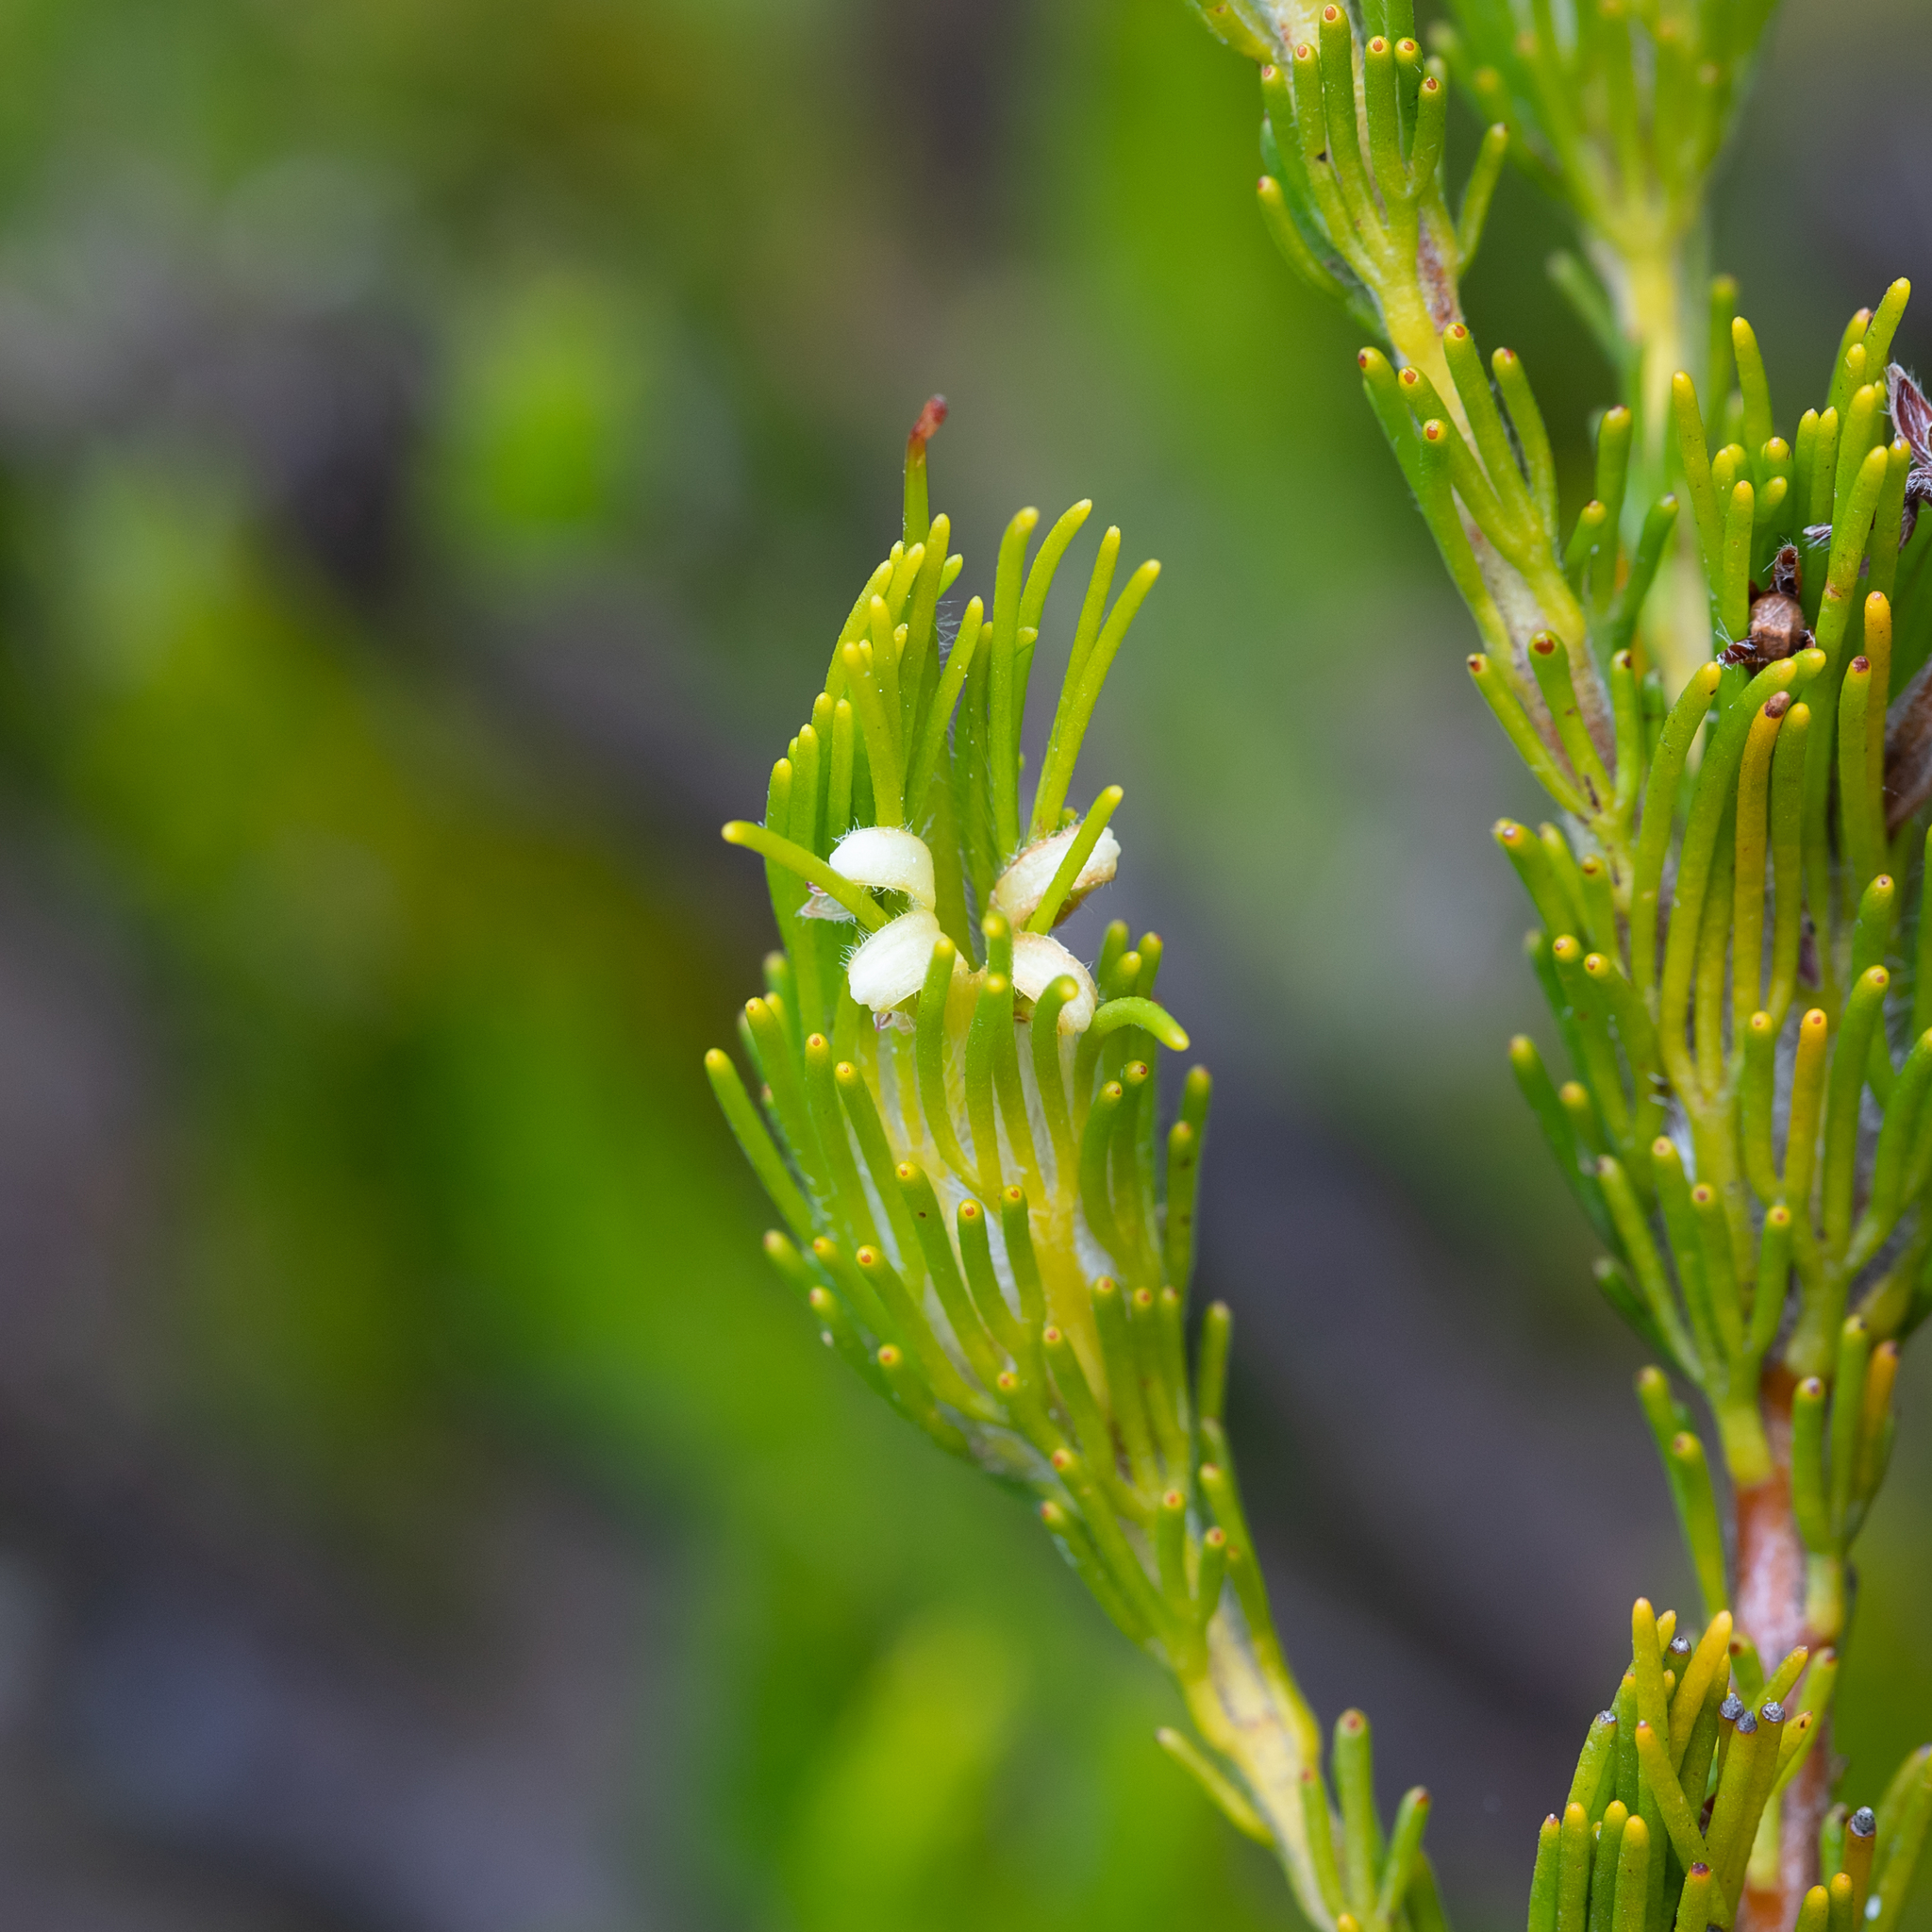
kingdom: Plantae
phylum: Tracheophyta
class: Magnoliopsida
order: Proteales
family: Proteaceae
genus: Adenanthos
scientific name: Adenanthos terminalis
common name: Yellow gland-flower
